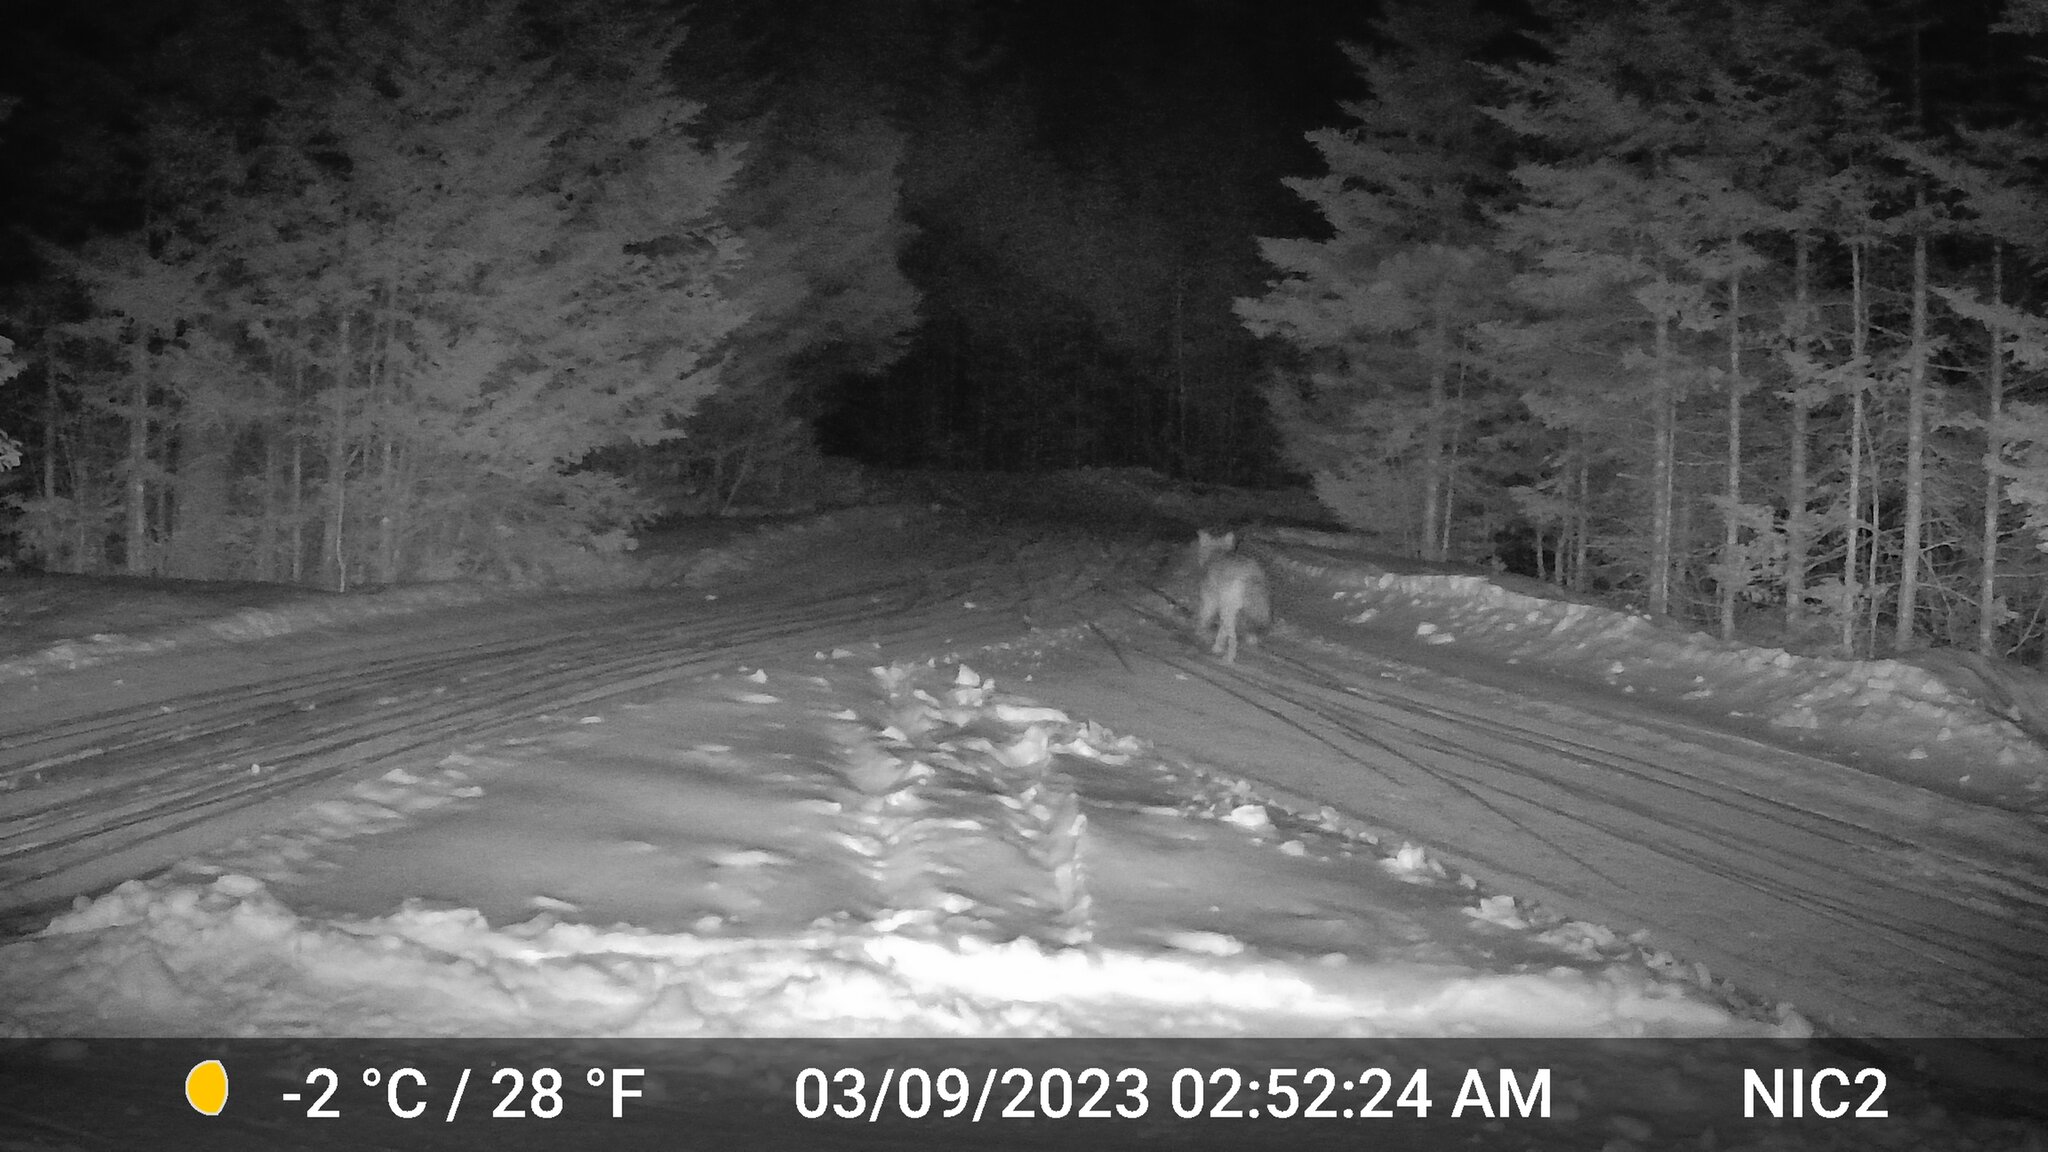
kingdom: Animalia
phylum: Chordata
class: Mammalia
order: Carnivora
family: Canidae
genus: Canis
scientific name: Canis latrans
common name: Coyote
